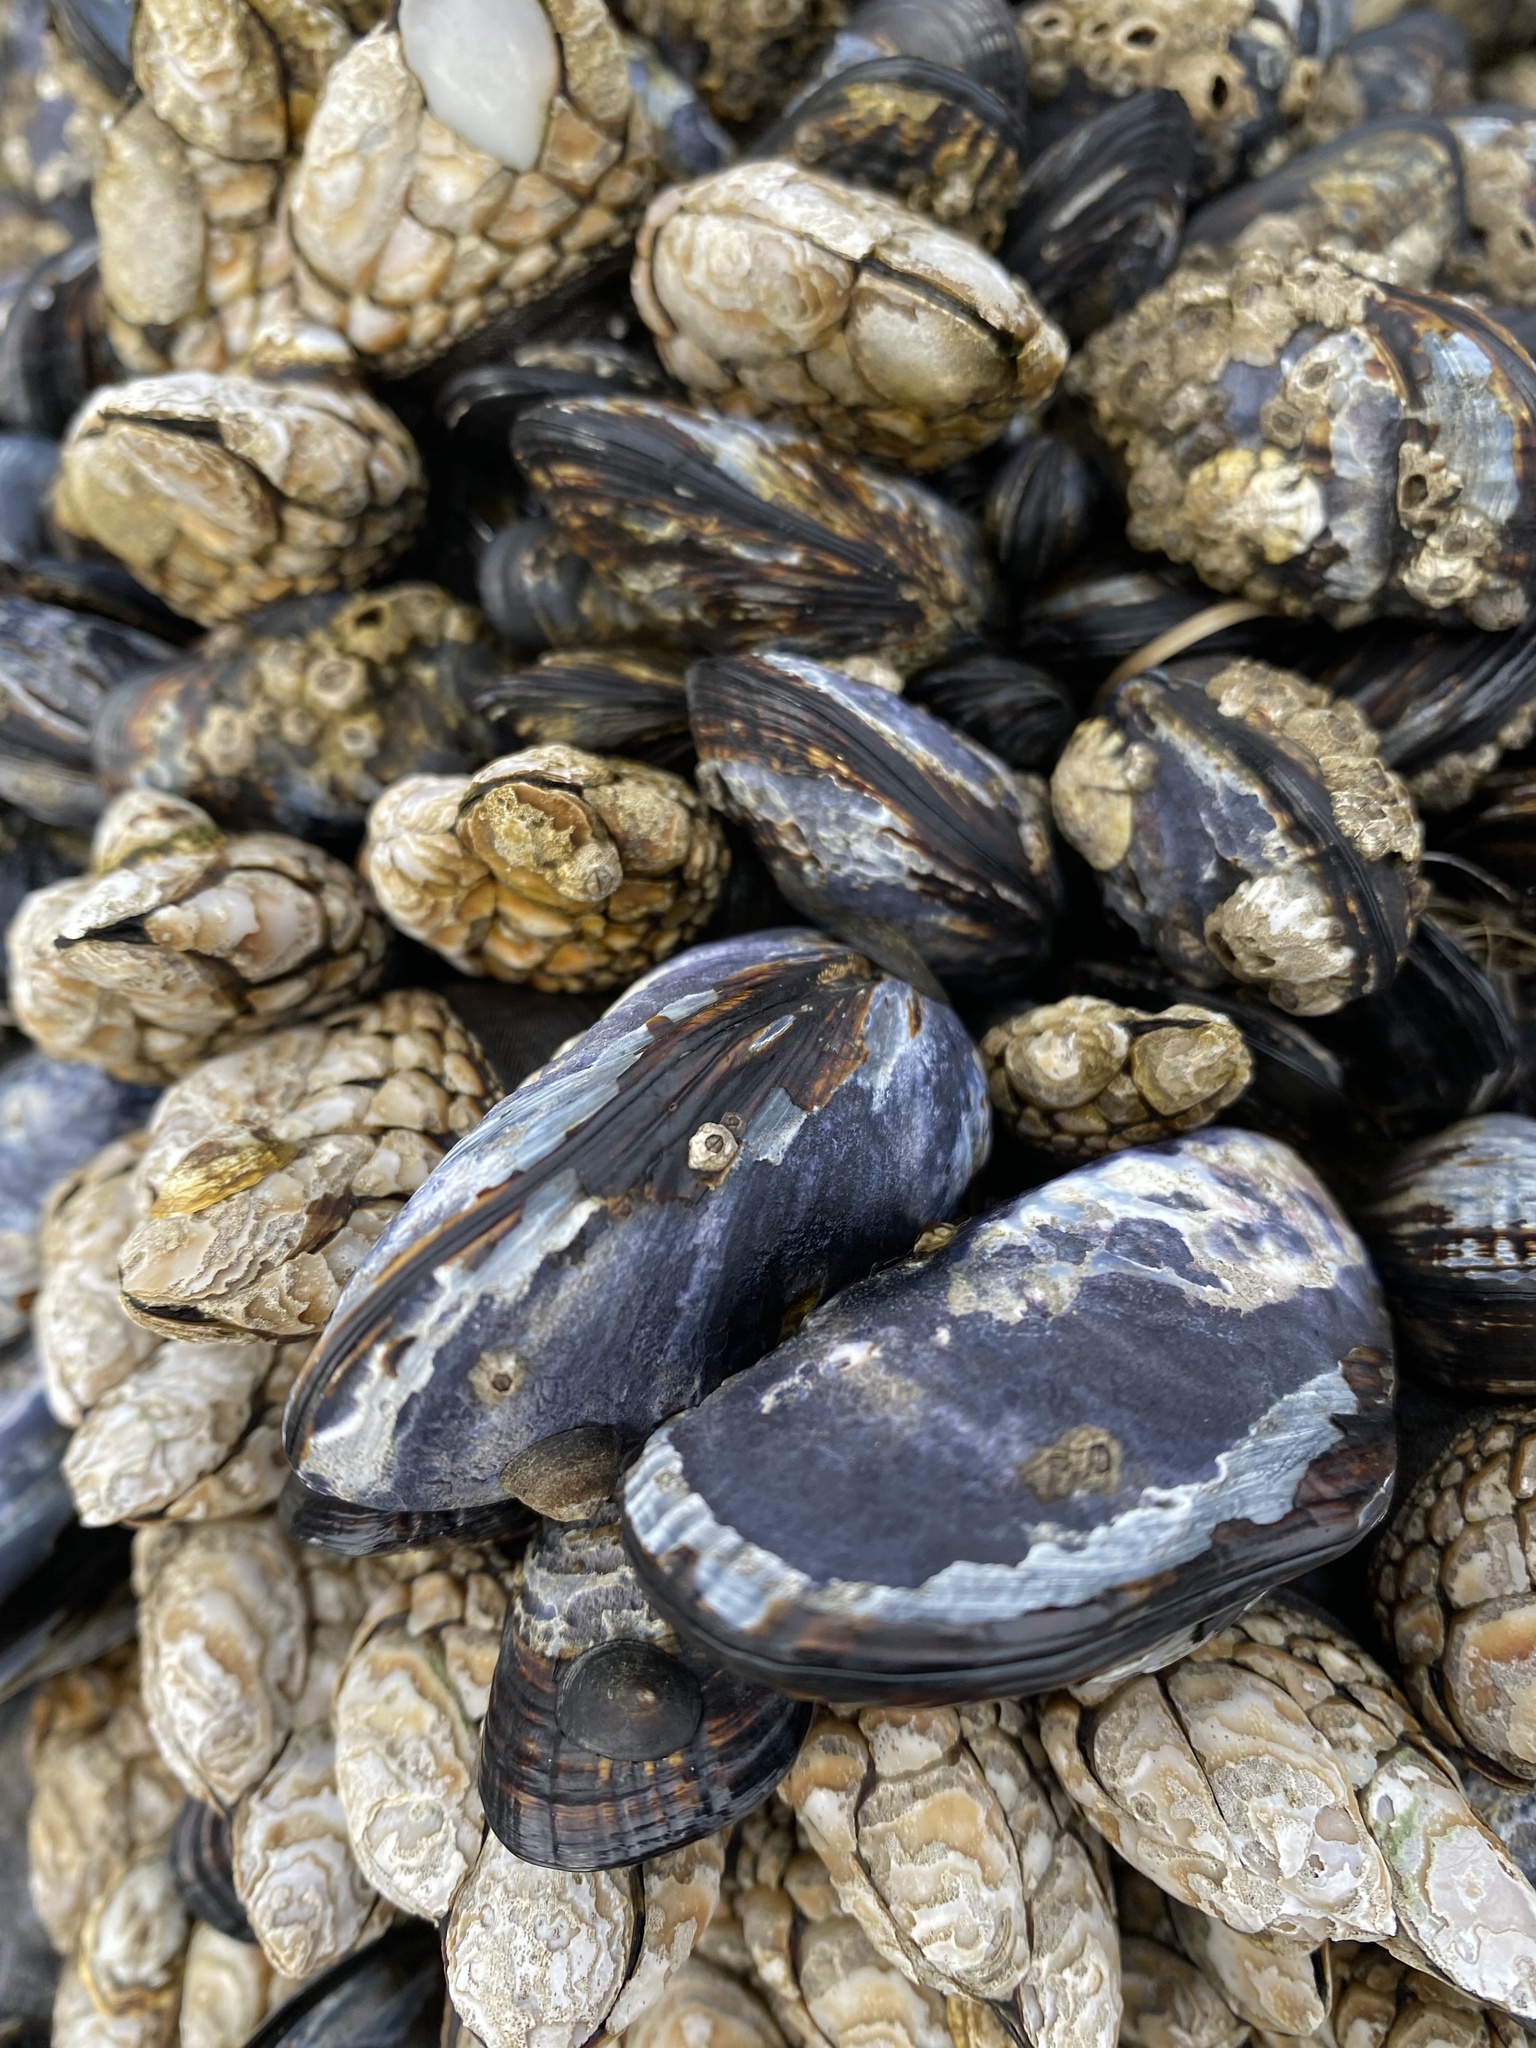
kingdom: Animalia
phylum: Arthropoda
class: Maxillopoda
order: Pedunculata
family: Pollicipedidae
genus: Pollicipes
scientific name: Pollicipes polymerus
